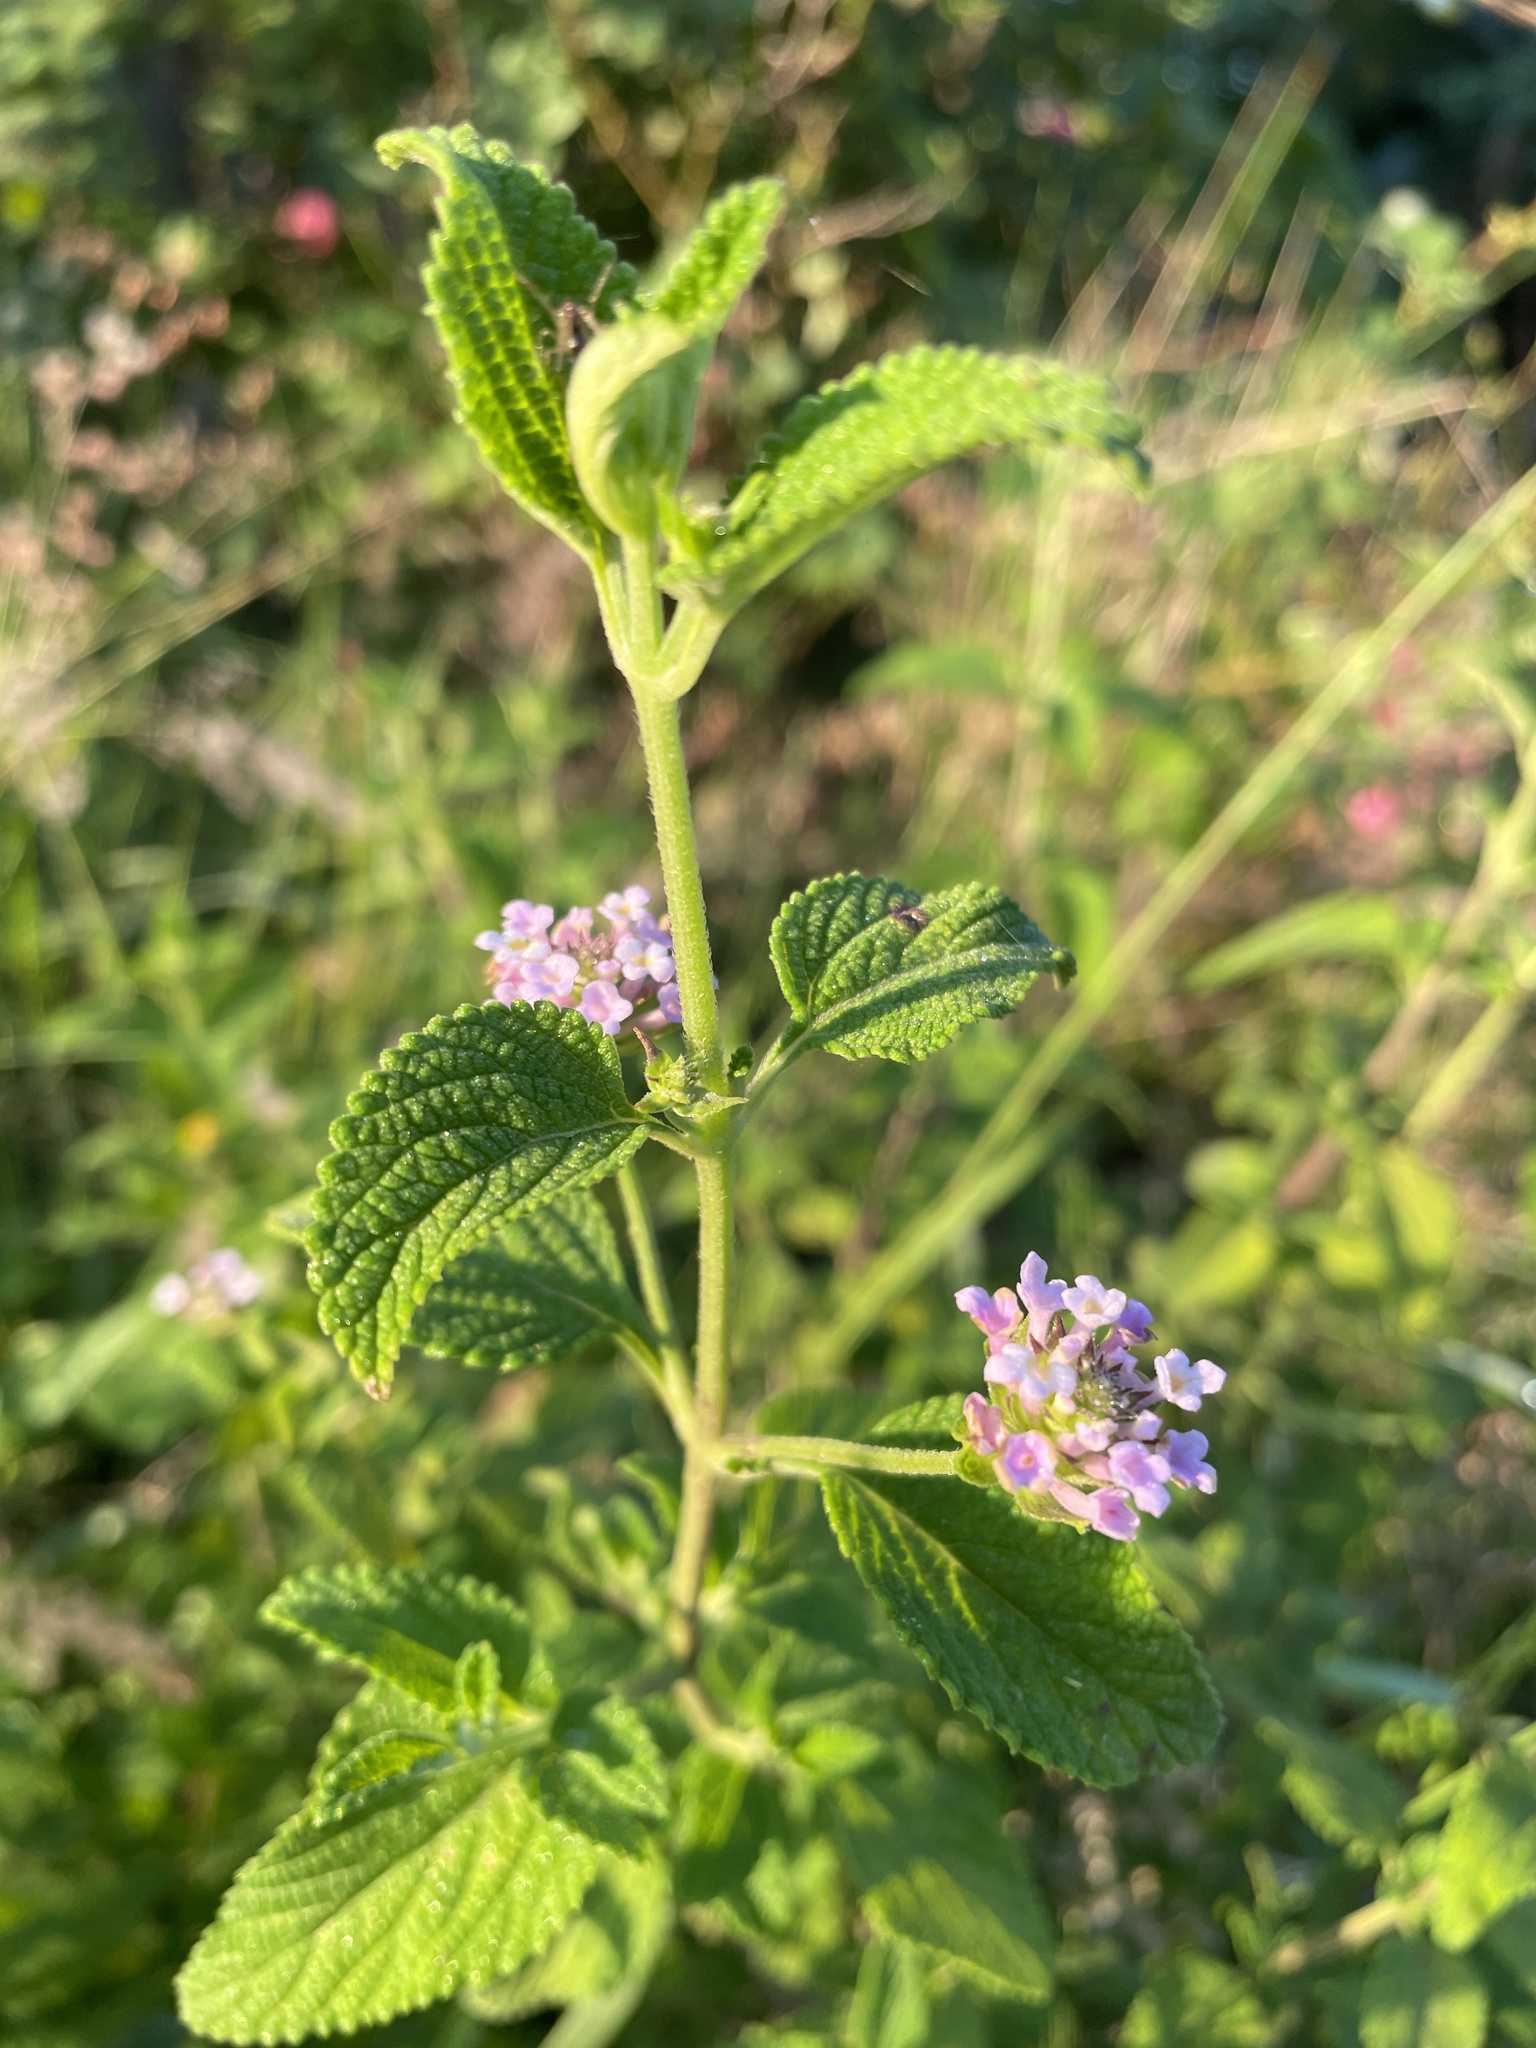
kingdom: Plantae
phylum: Tracheophyta
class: Magnoliopsida
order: Lamiales
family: Verbenaceae
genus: Lantana
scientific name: Lantana rugosa
